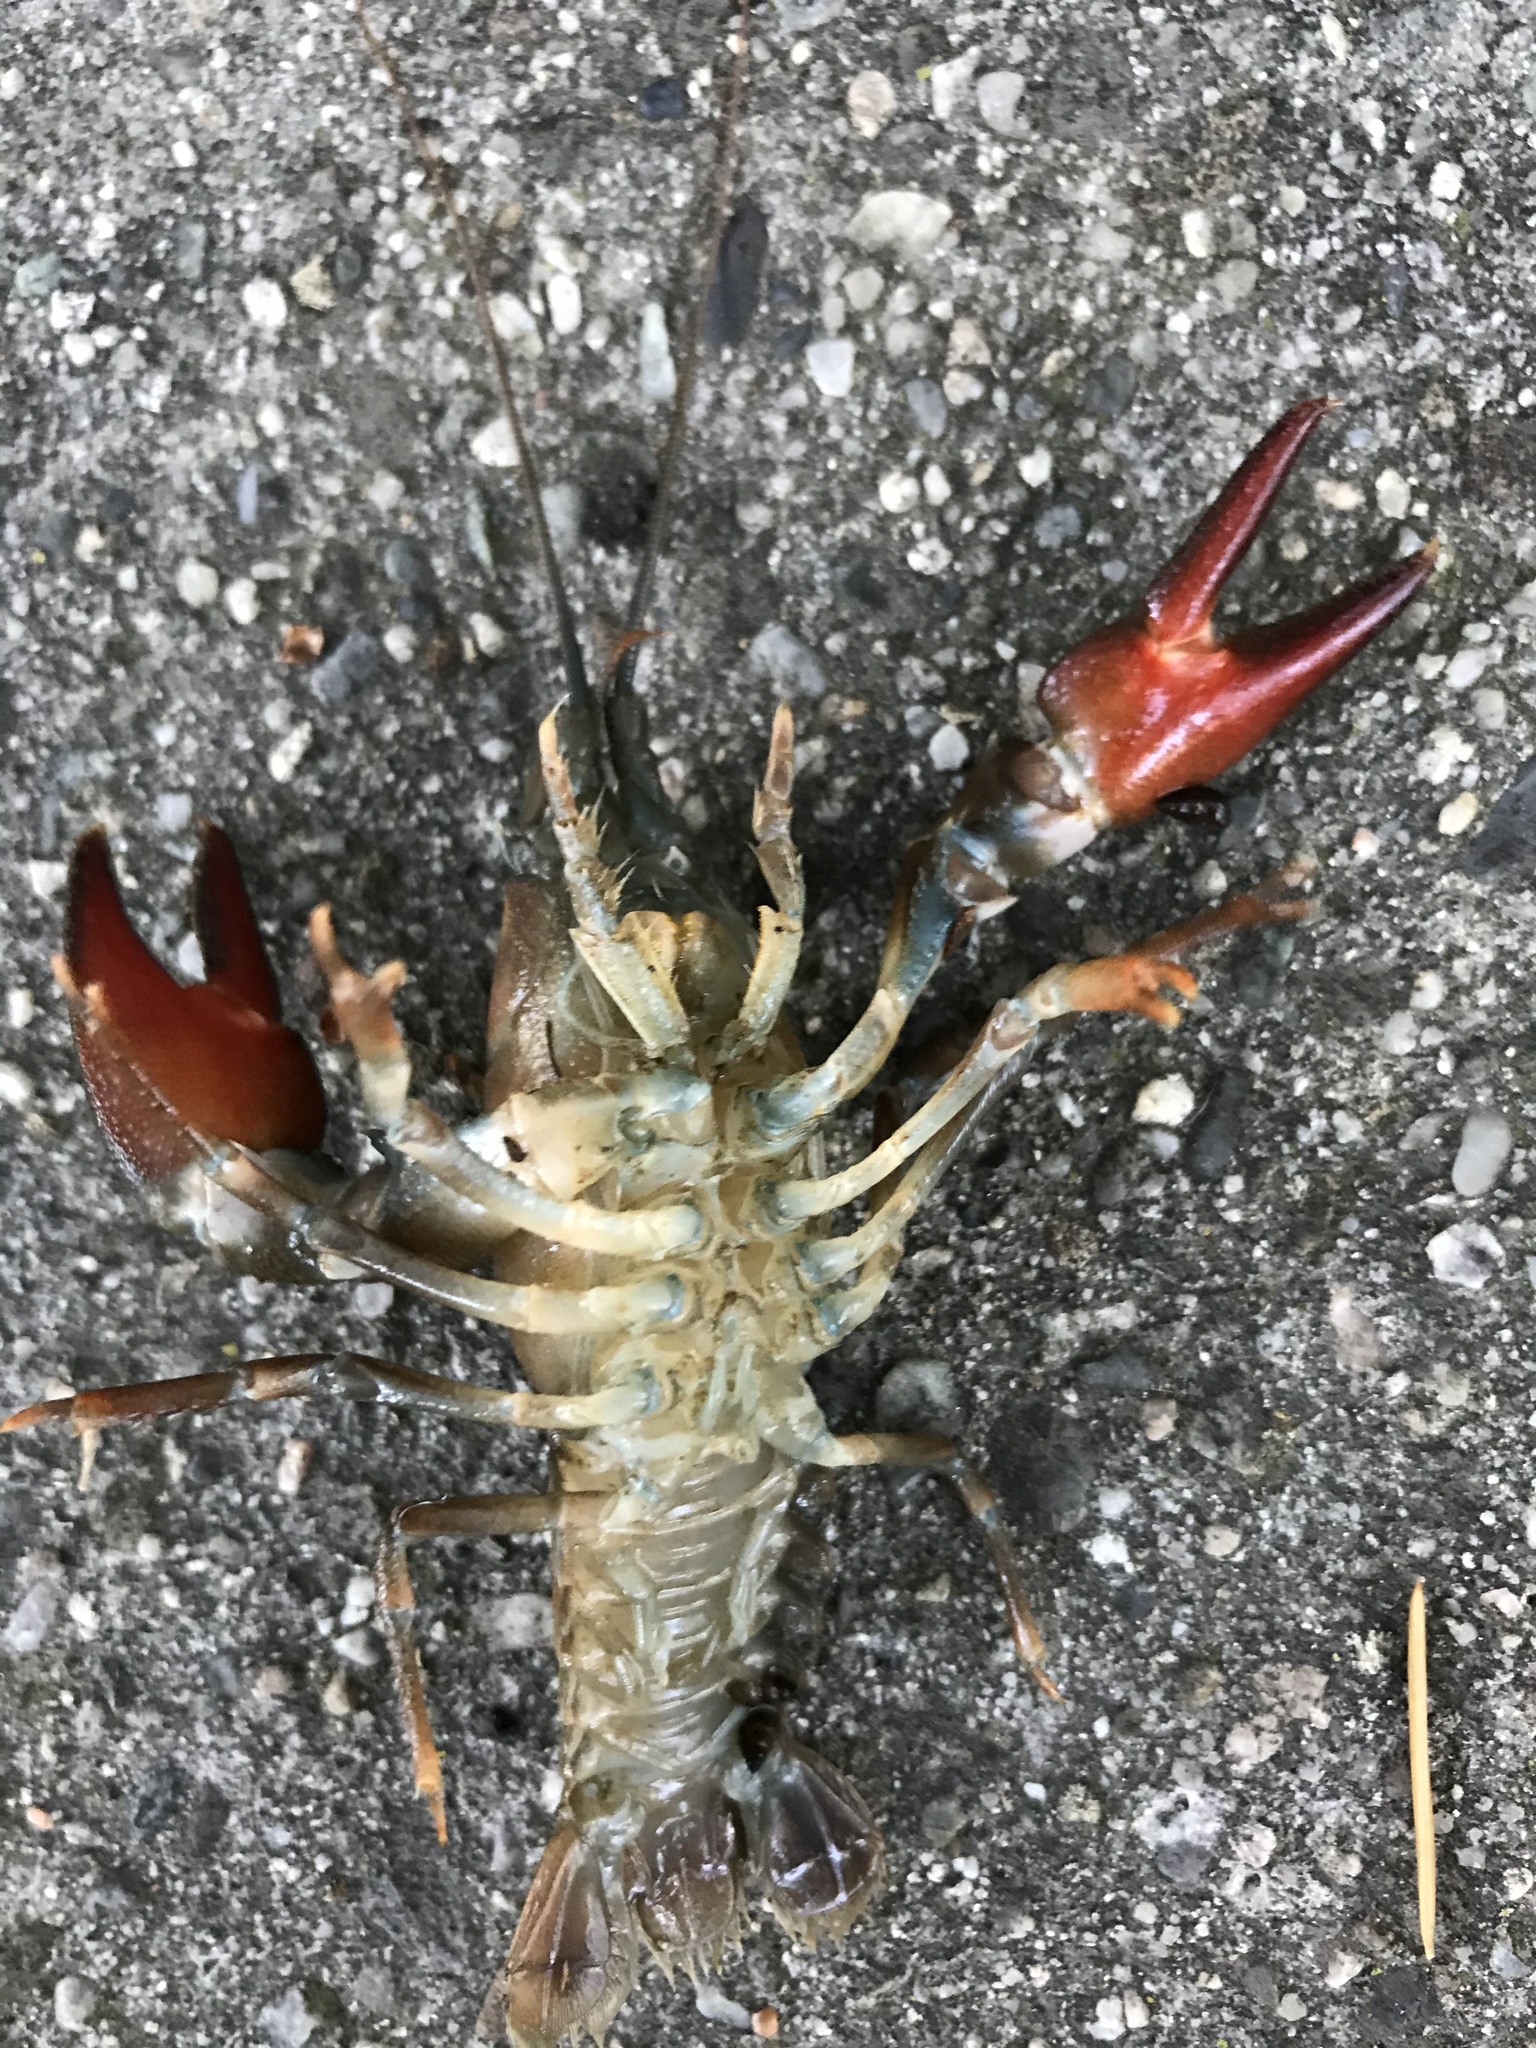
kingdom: Animalia
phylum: Arthropoda
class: Malacostraca
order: Decapoda
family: Astacidae
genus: Pacifastacus
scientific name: Pacifastacus leniusculus
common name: Signal crayfish
